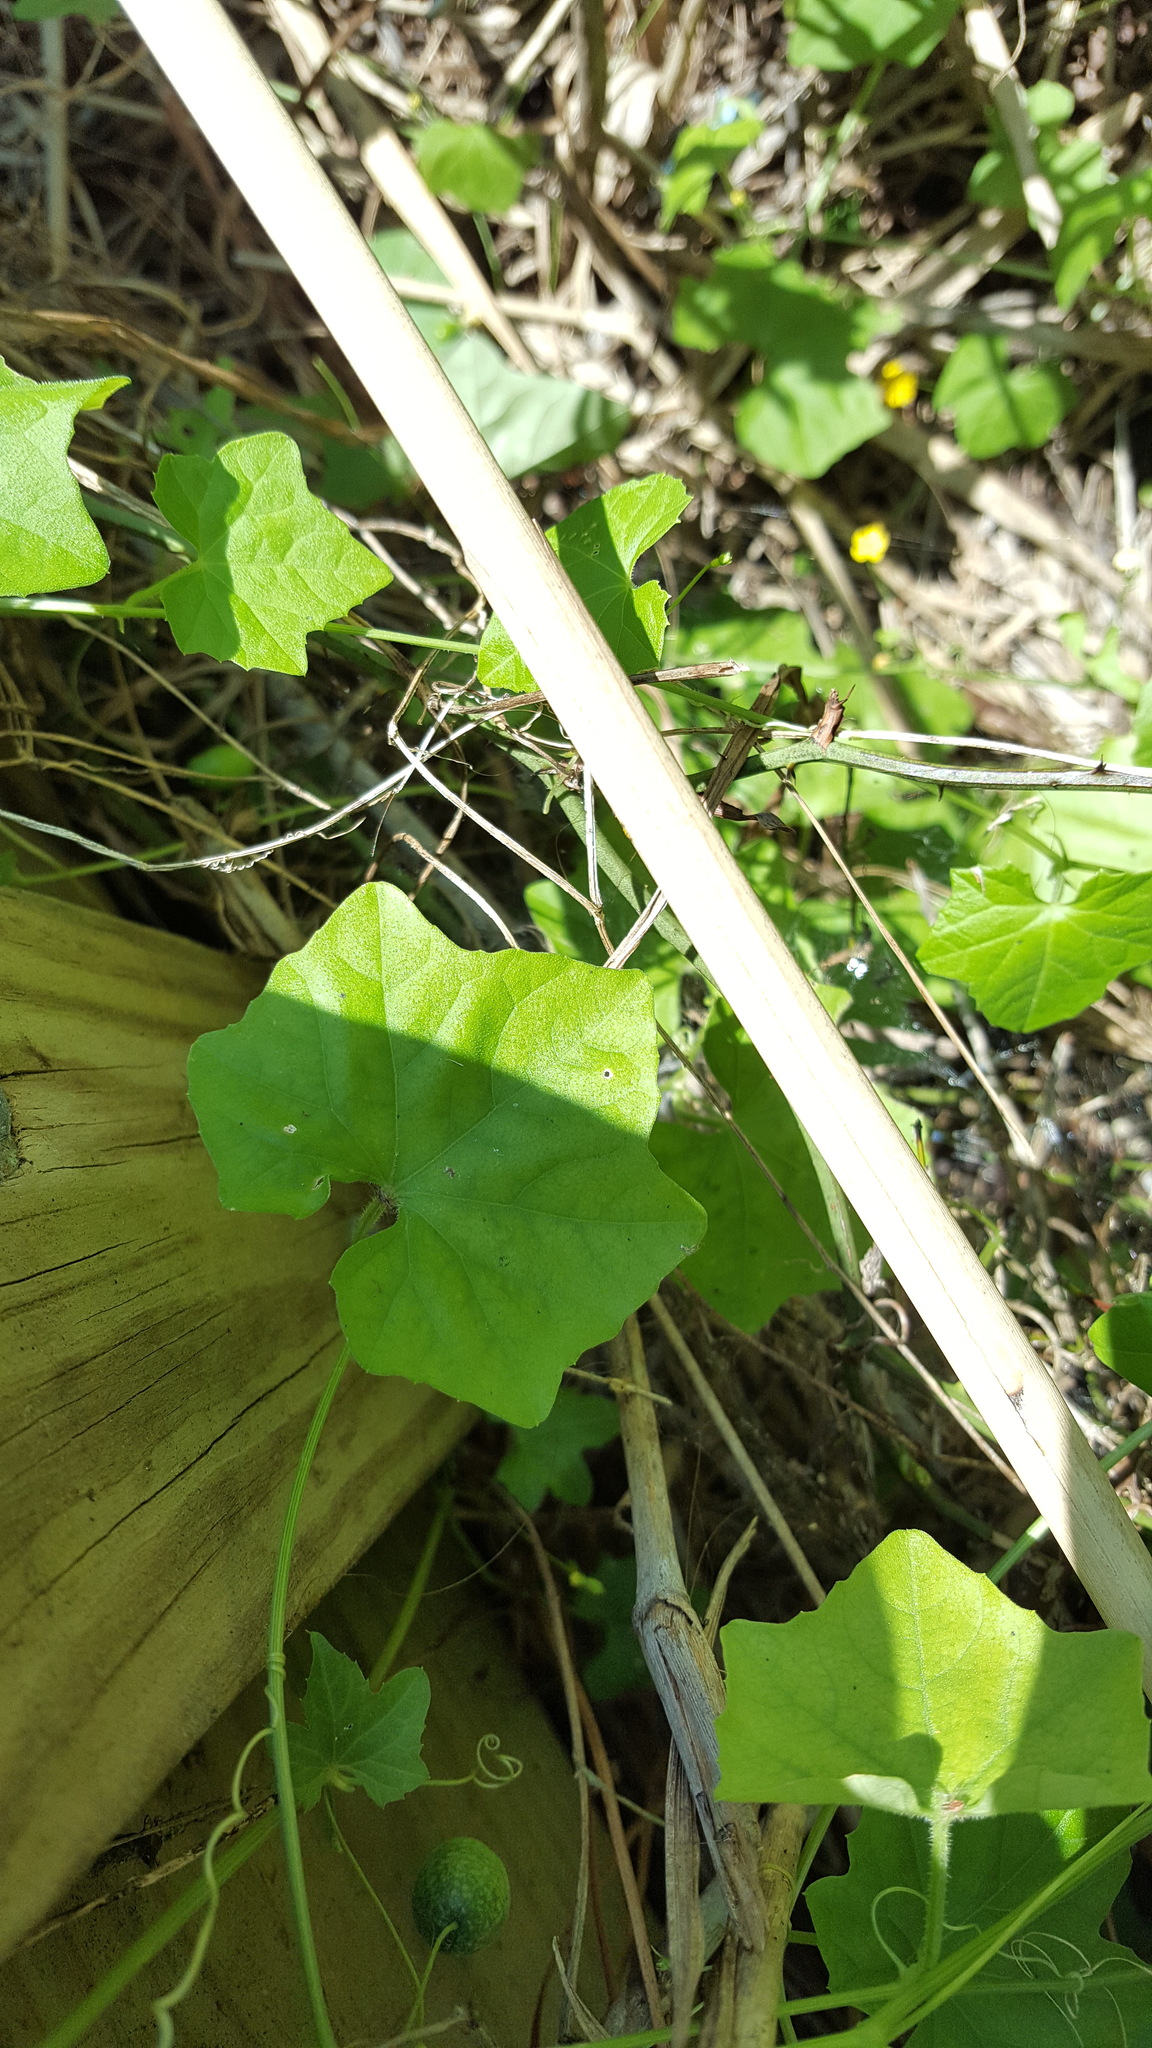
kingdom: Plantae
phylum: Tracheophyta
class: Magnoliopsida
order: Cucurbitales
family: Cucurbitaceae
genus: Melothria
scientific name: Melothria pendula
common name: Creeping-cucumber
